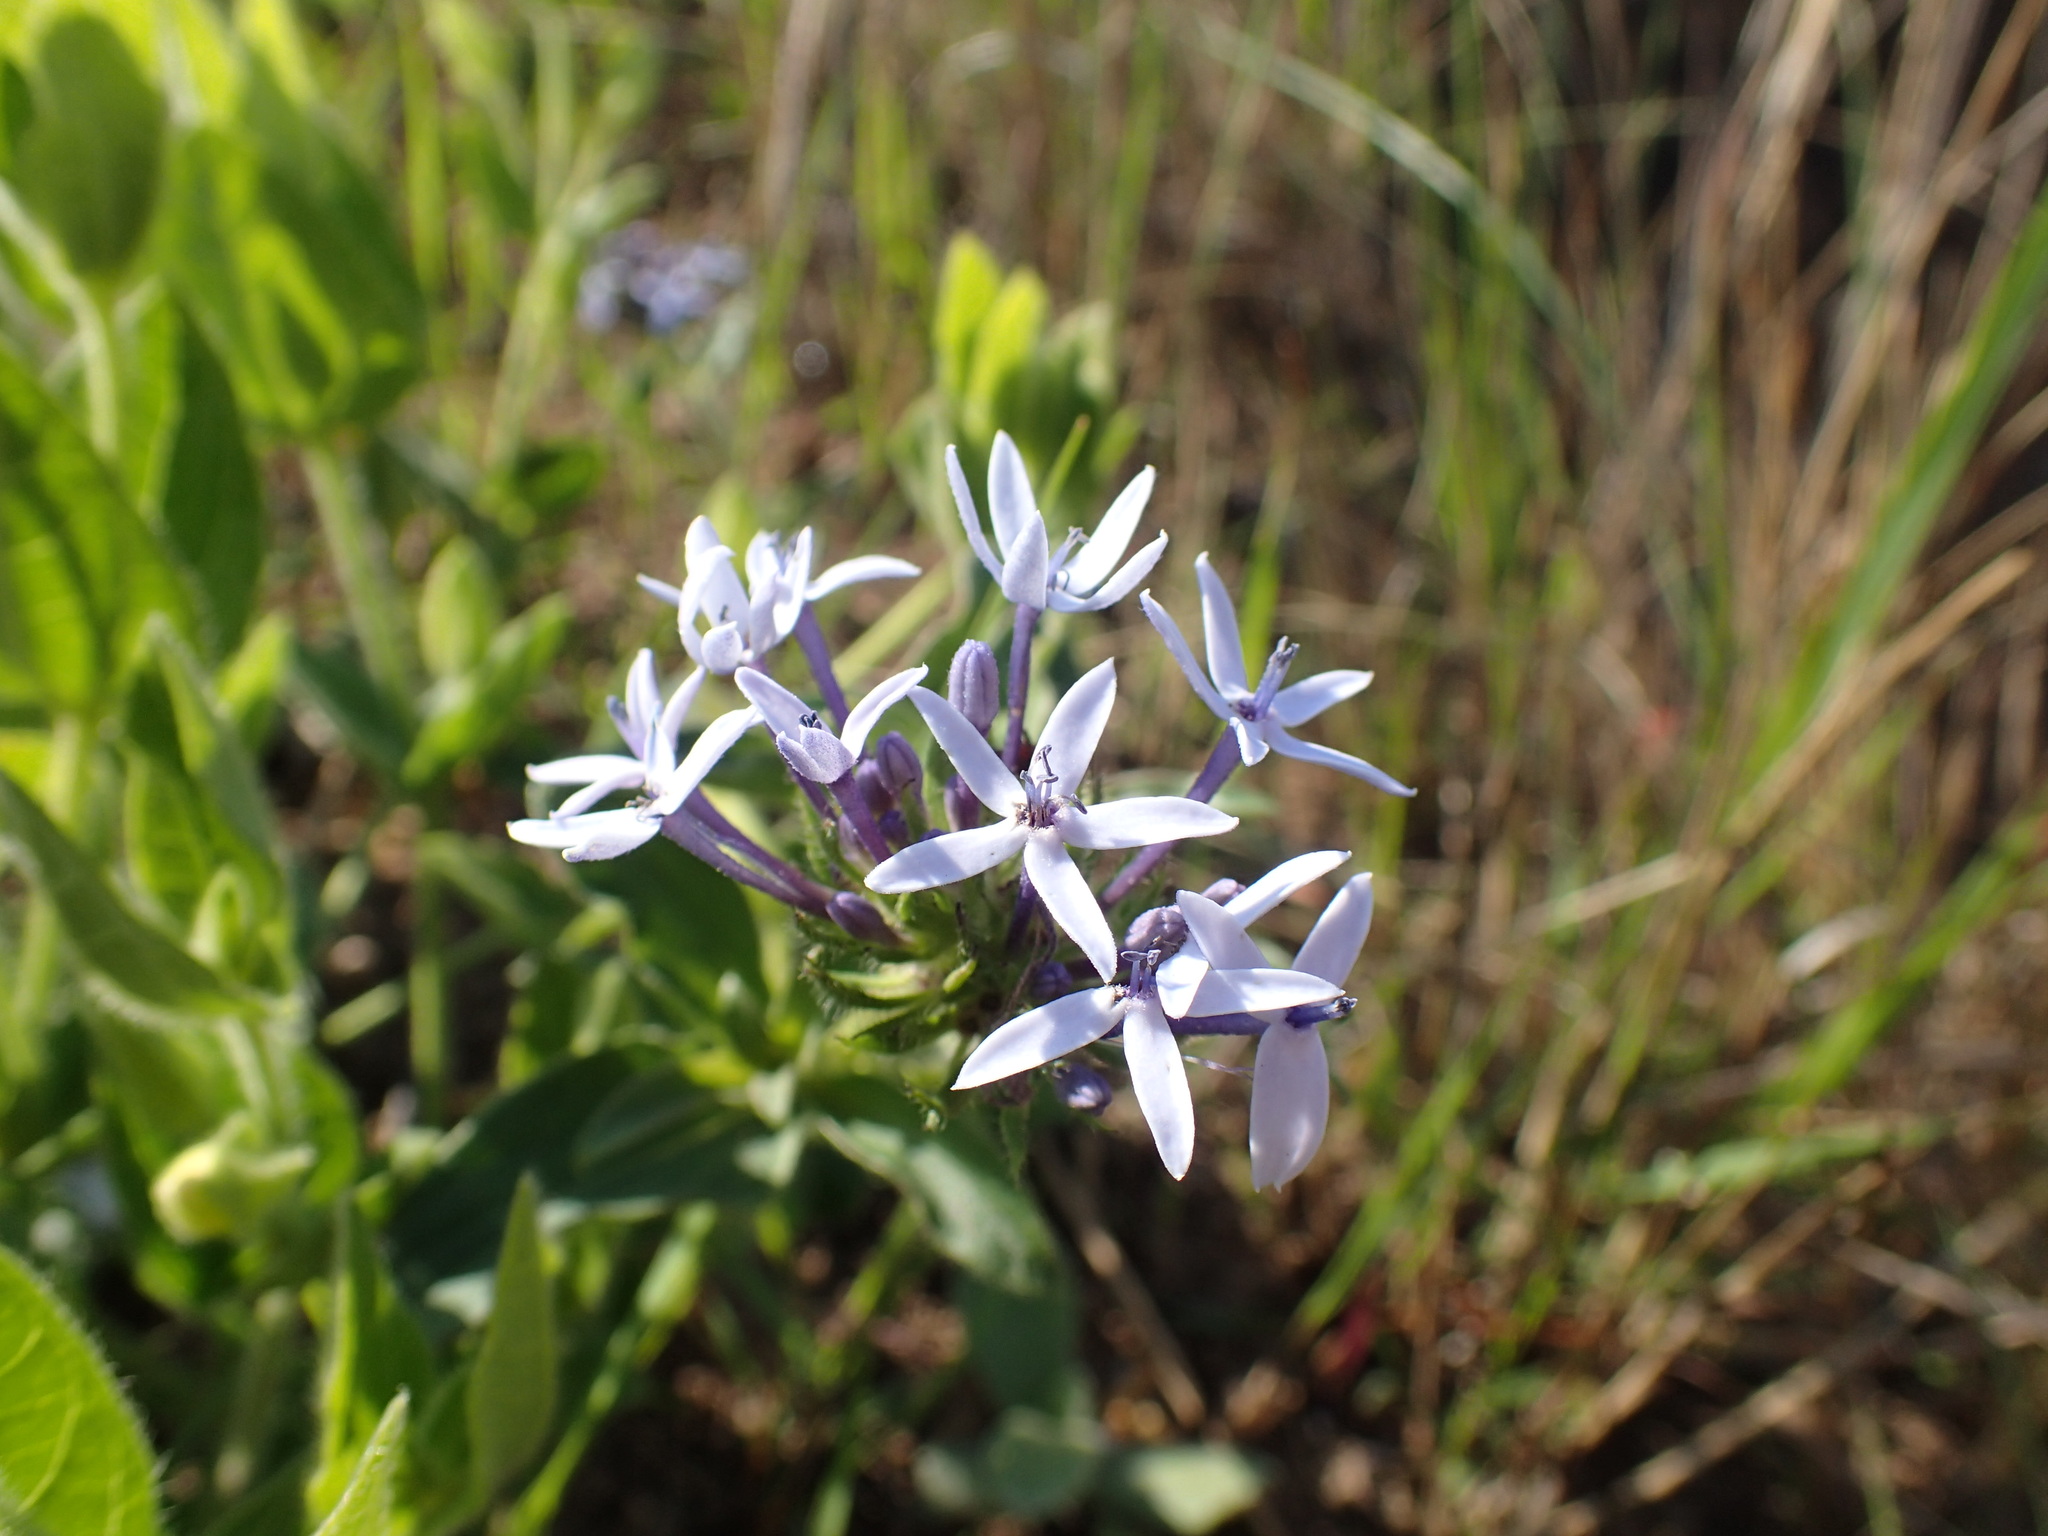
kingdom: Plantae
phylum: Tracheophyta
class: Magnoliopsida
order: Gentianales
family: Rubiaceae
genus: Pentanisia
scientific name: Pentanisia prunelloides
